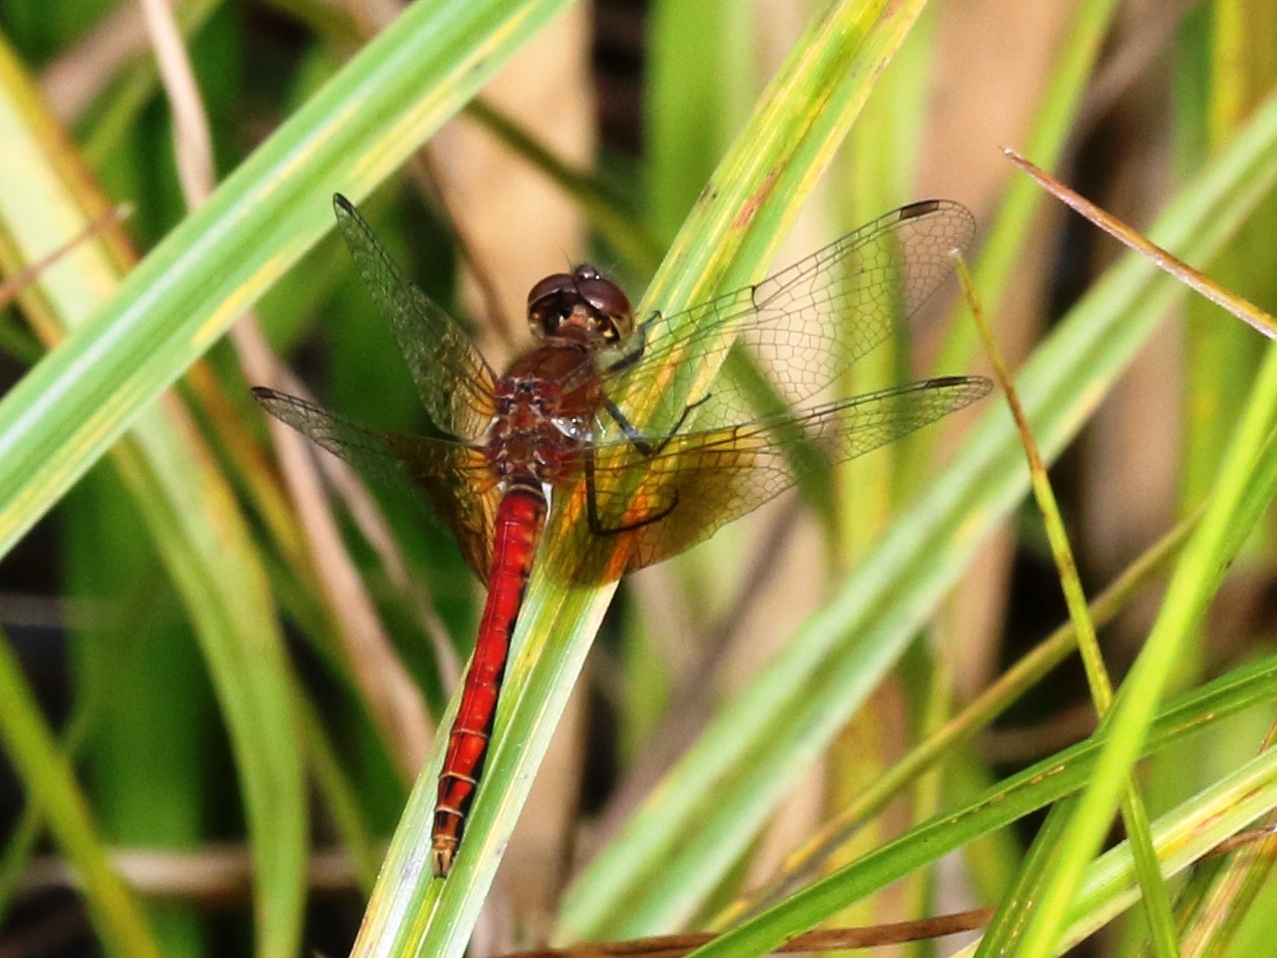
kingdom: Animalia
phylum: Arthropoda
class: Insecta
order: Odonata
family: Libellulidae
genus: Sympetrum
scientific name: Sympetrum semicinctum
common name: Band-winged meadowhawk
